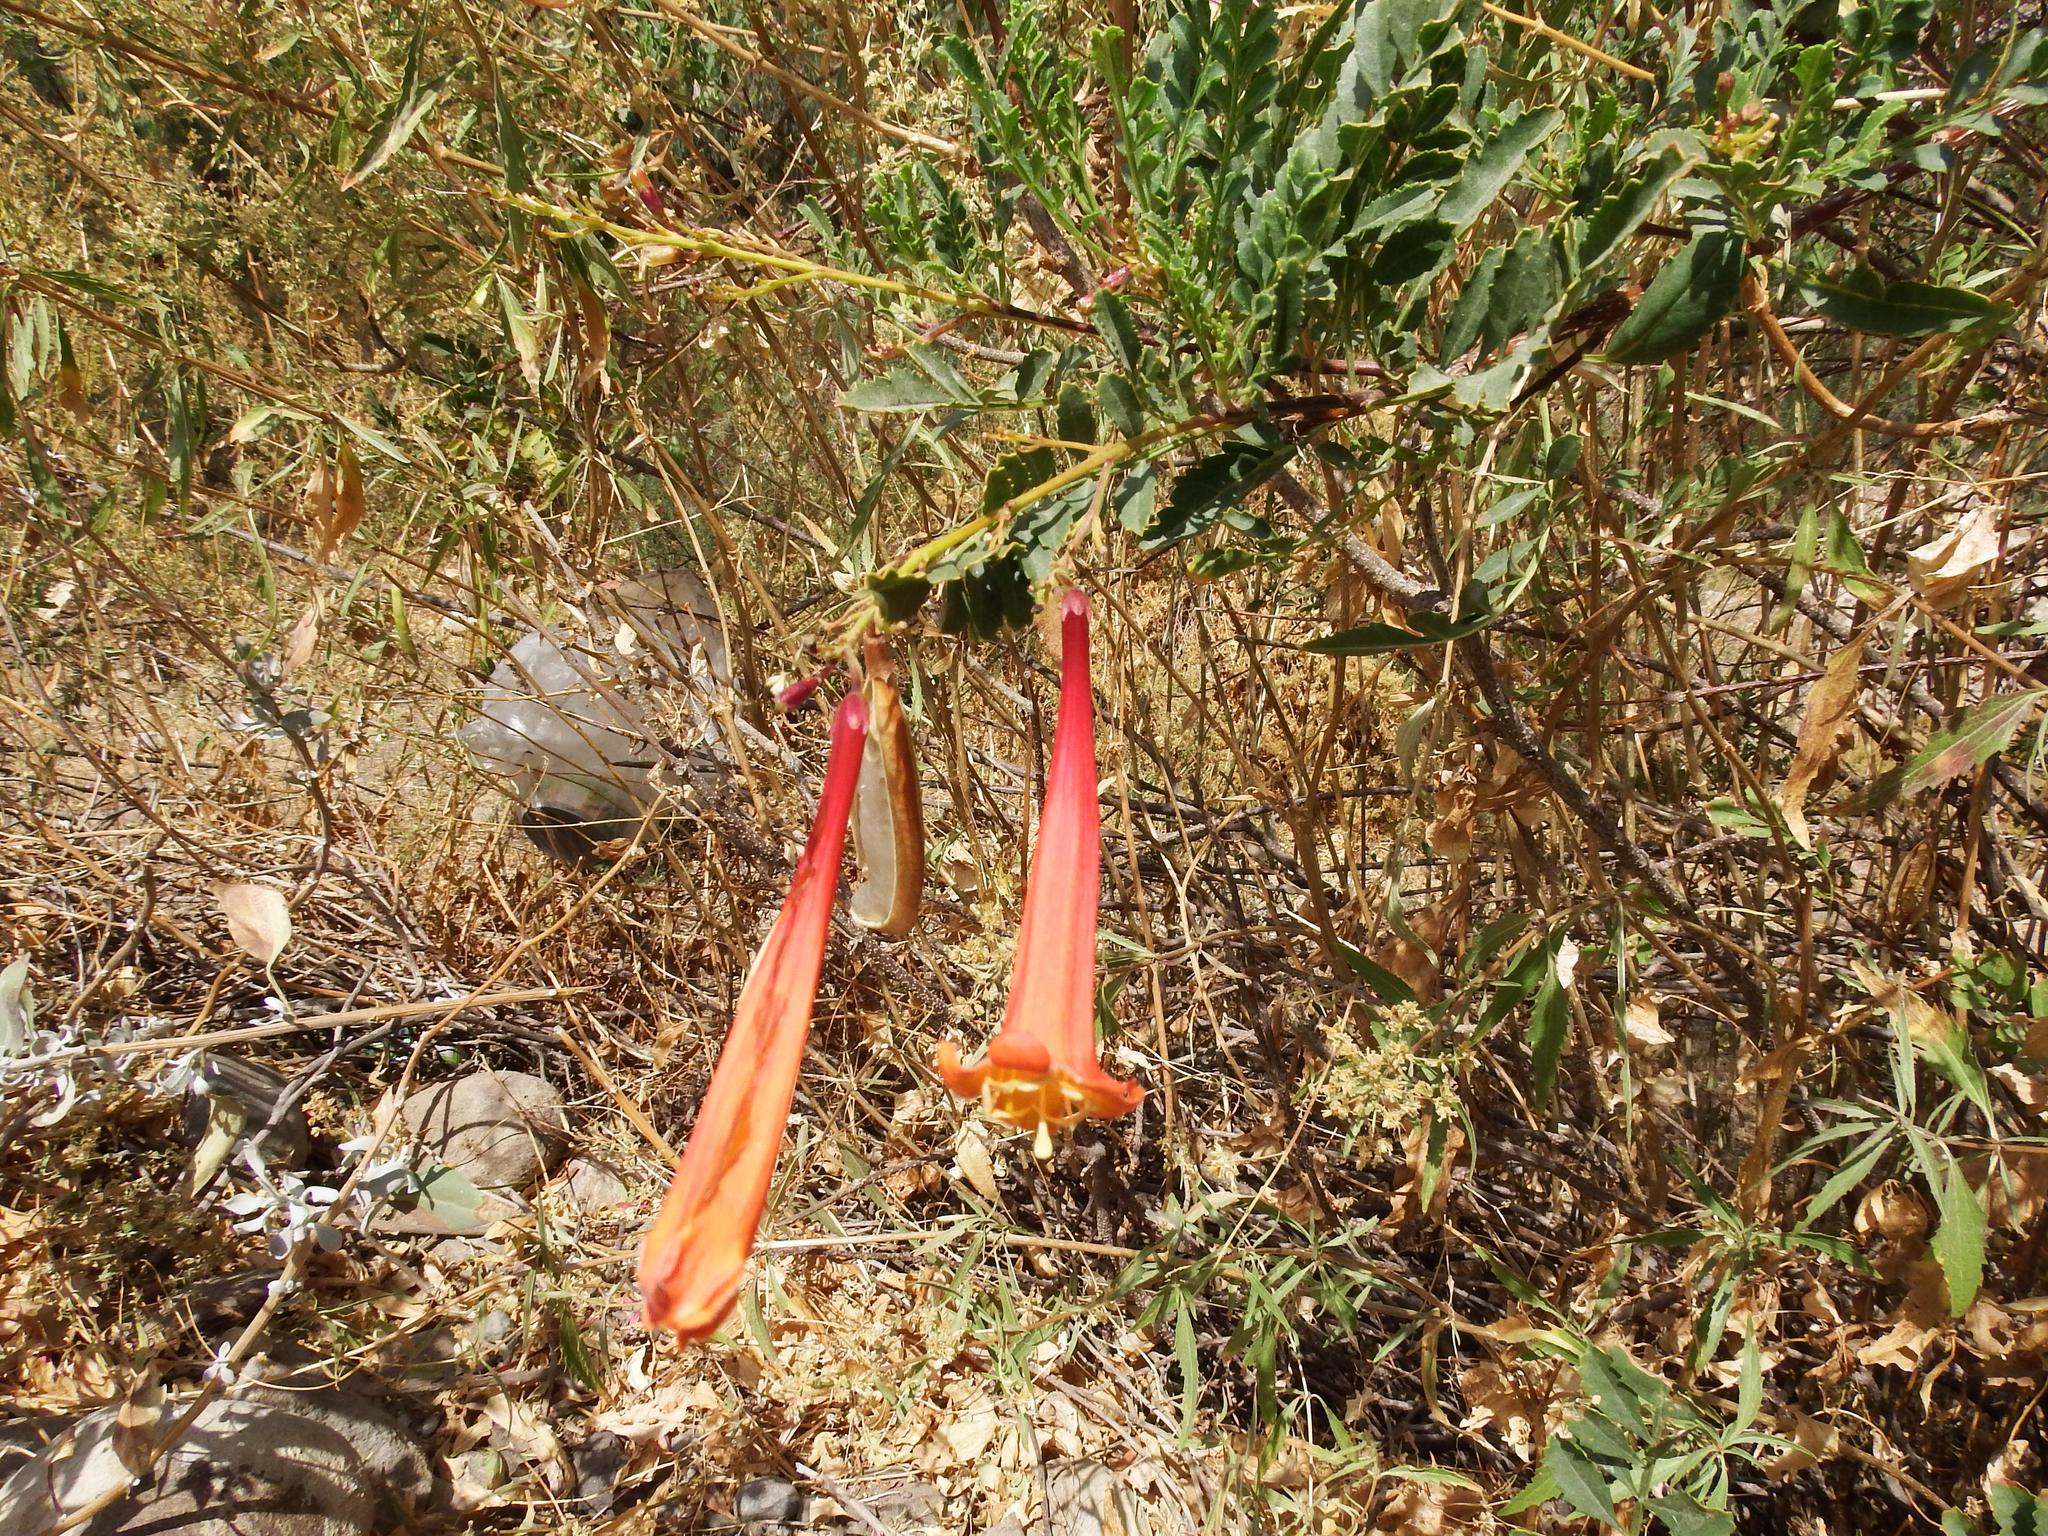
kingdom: Plantae
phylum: Tracheophyta
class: Magnoliopsida
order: Lamiales
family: Bignoniaceae
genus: Tecoma
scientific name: Tecoma fulva
